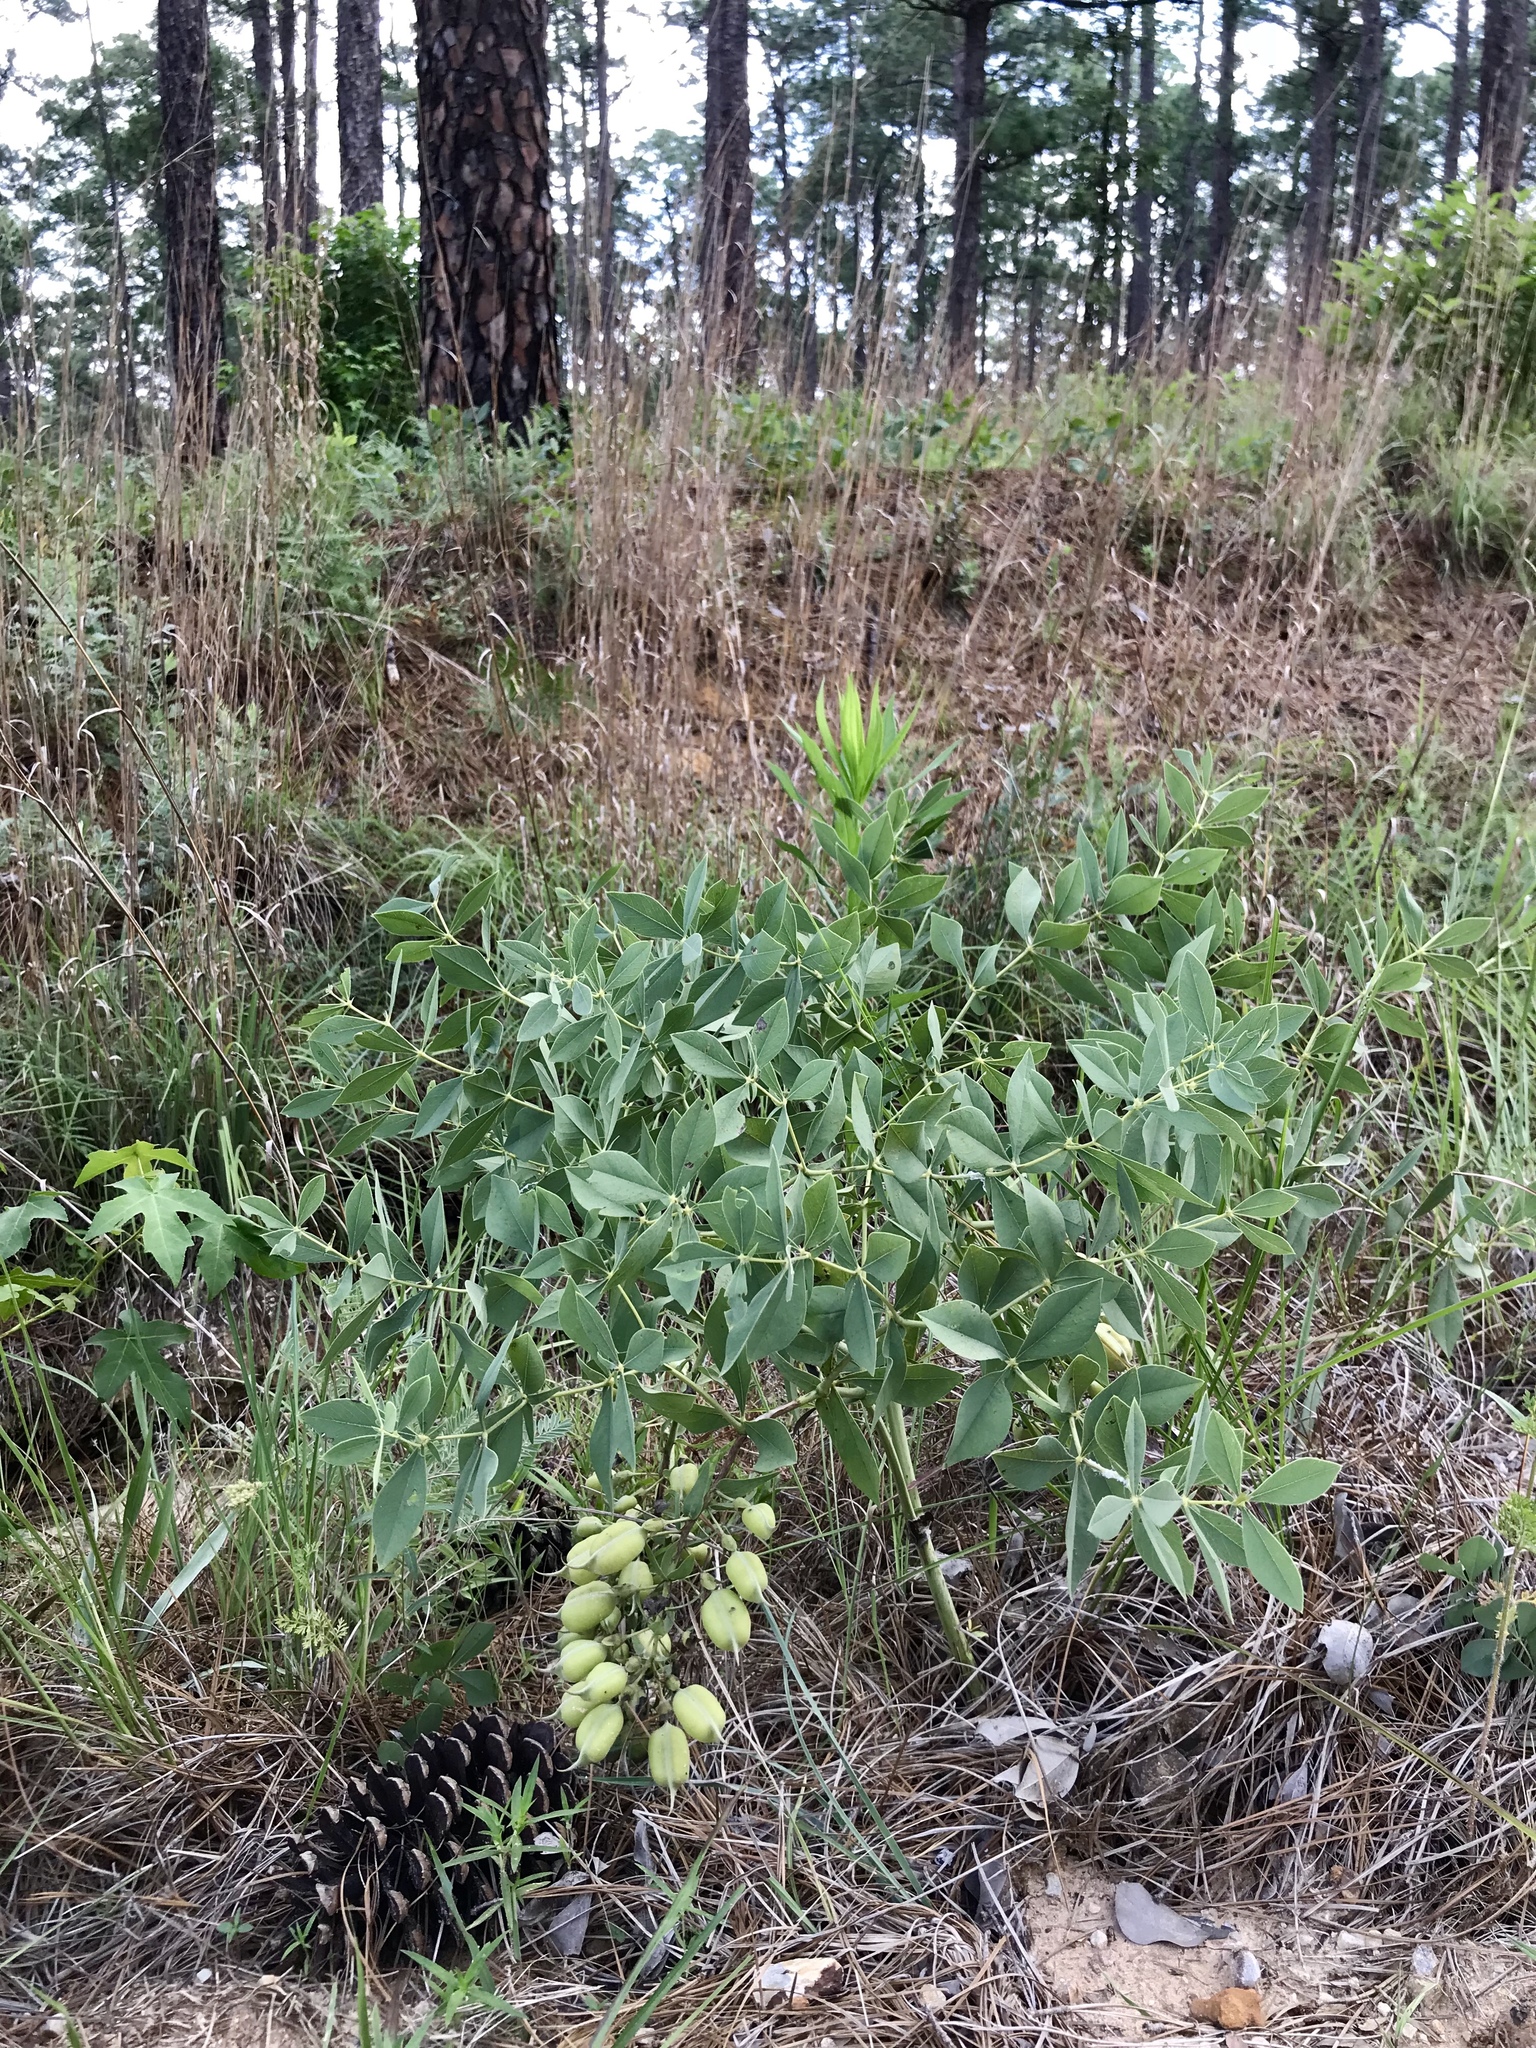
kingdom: Plantae
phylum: Tracheophyta
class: Magnoliopsida
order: Fabales
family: Fabaceae
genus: Baptisia
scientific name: Baptisia bracteata
